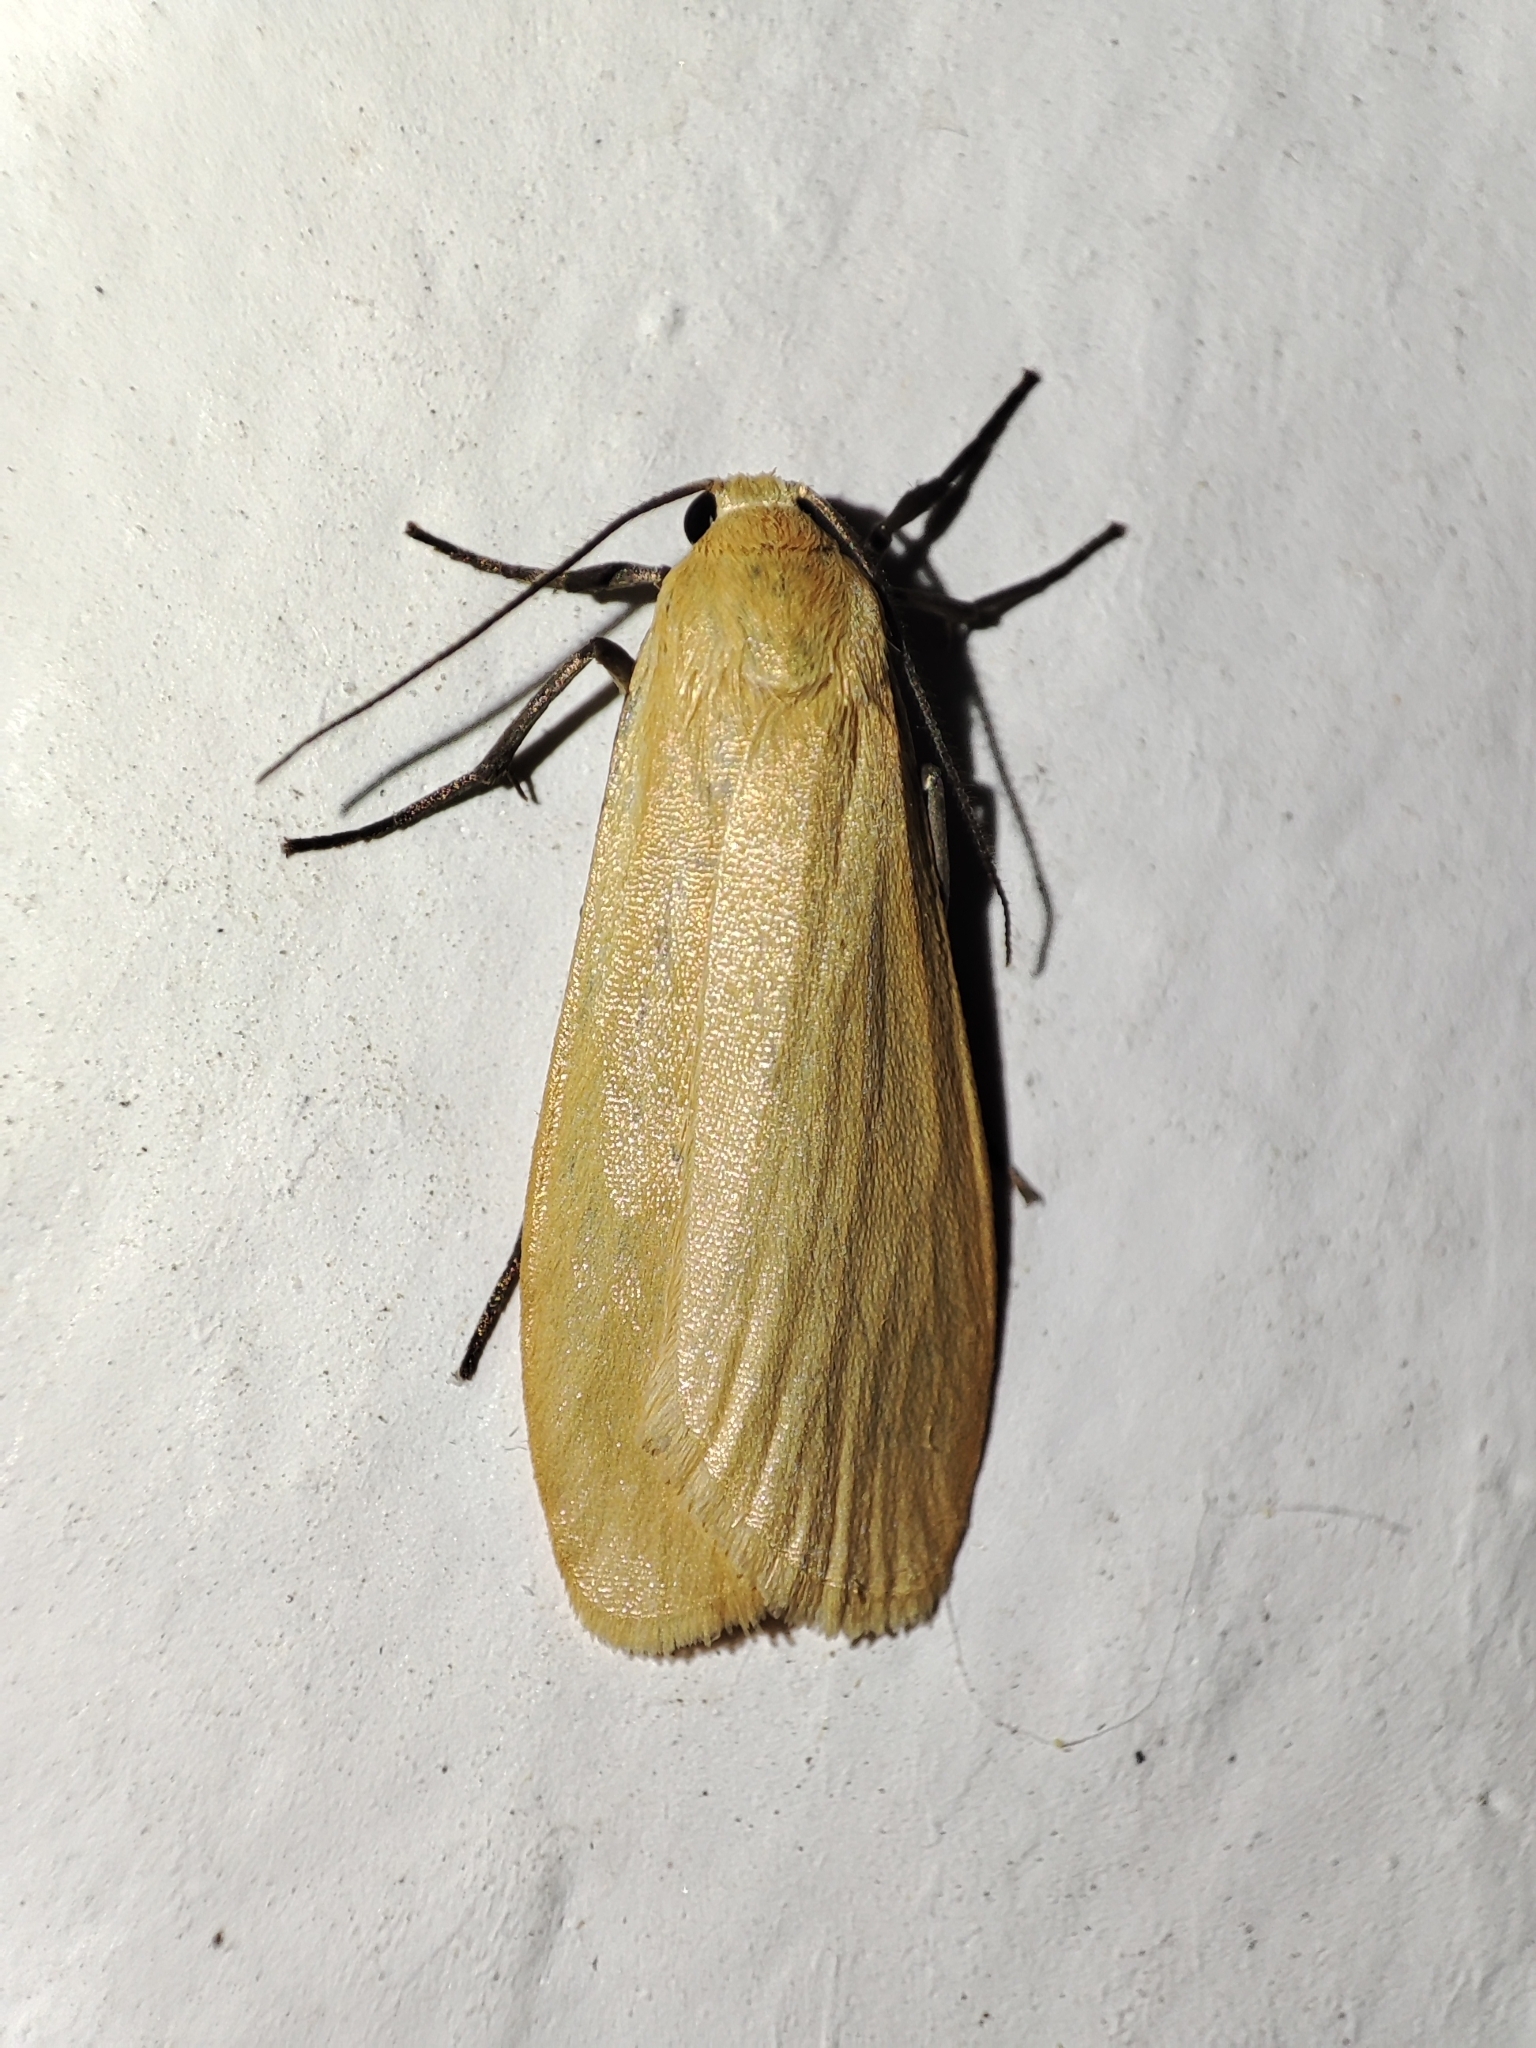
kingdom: Animalia
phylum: Arthropoda
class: Insecta
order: Lepidoptera
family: Erebidae
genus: Wittia
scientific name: Wittia sororcula
